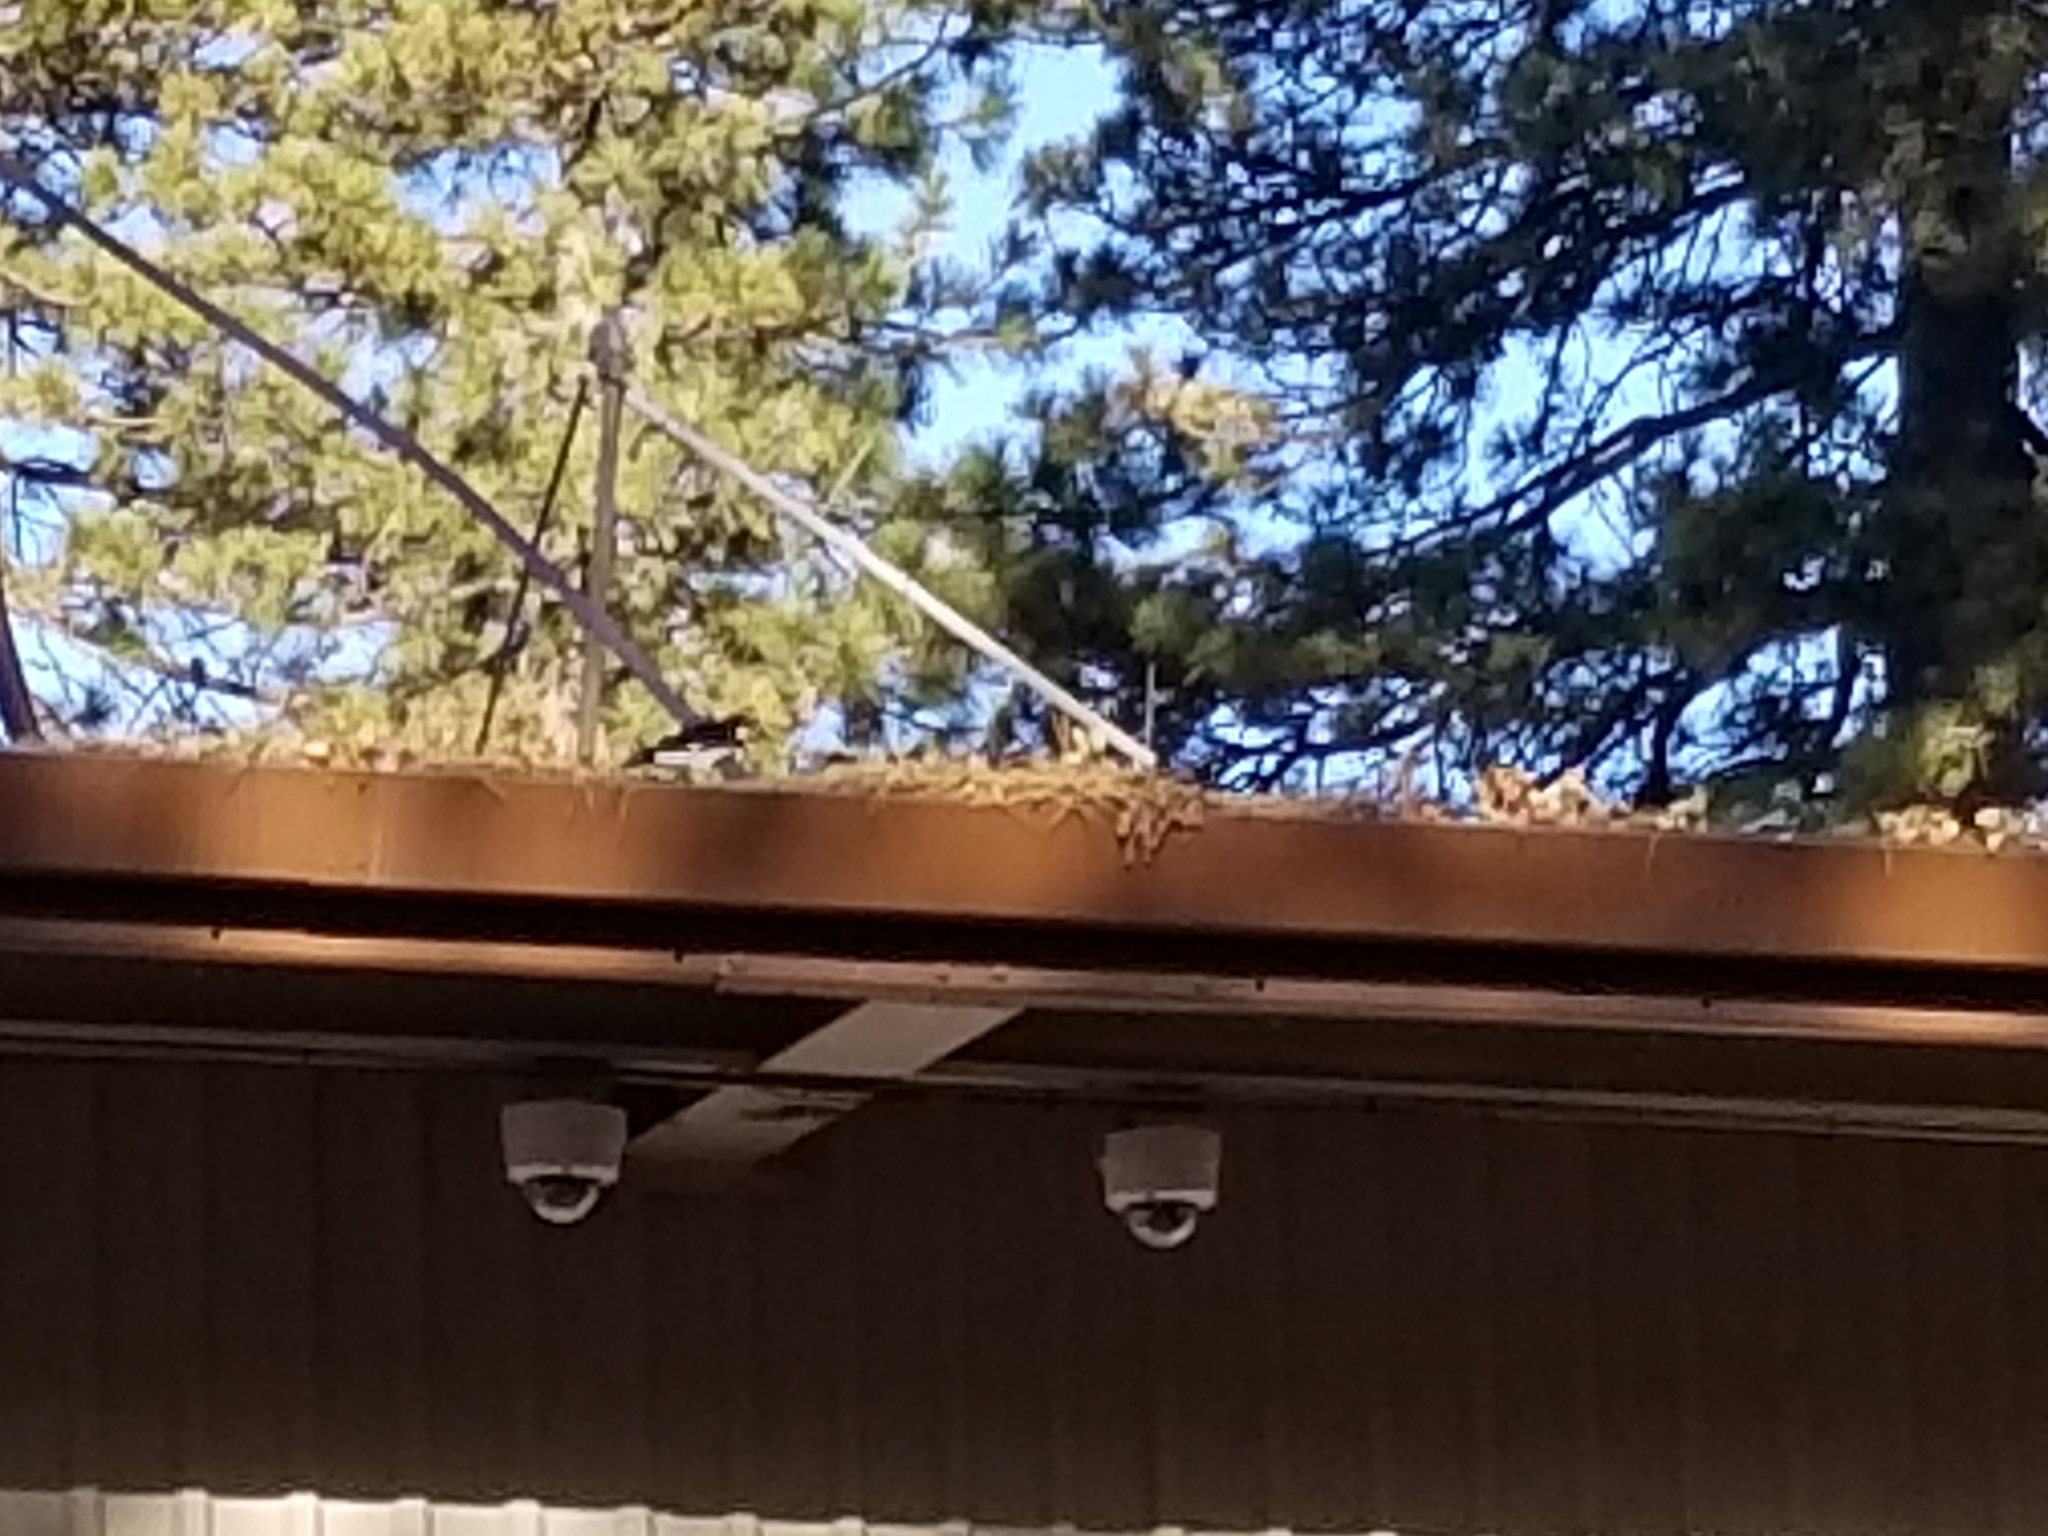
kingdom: Animalia
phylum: Chordata
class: Aves
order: Piciformes
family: Picidae
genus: Melanerpes
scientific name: Melanerpes formicivorus
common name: Acorn woodpecker
